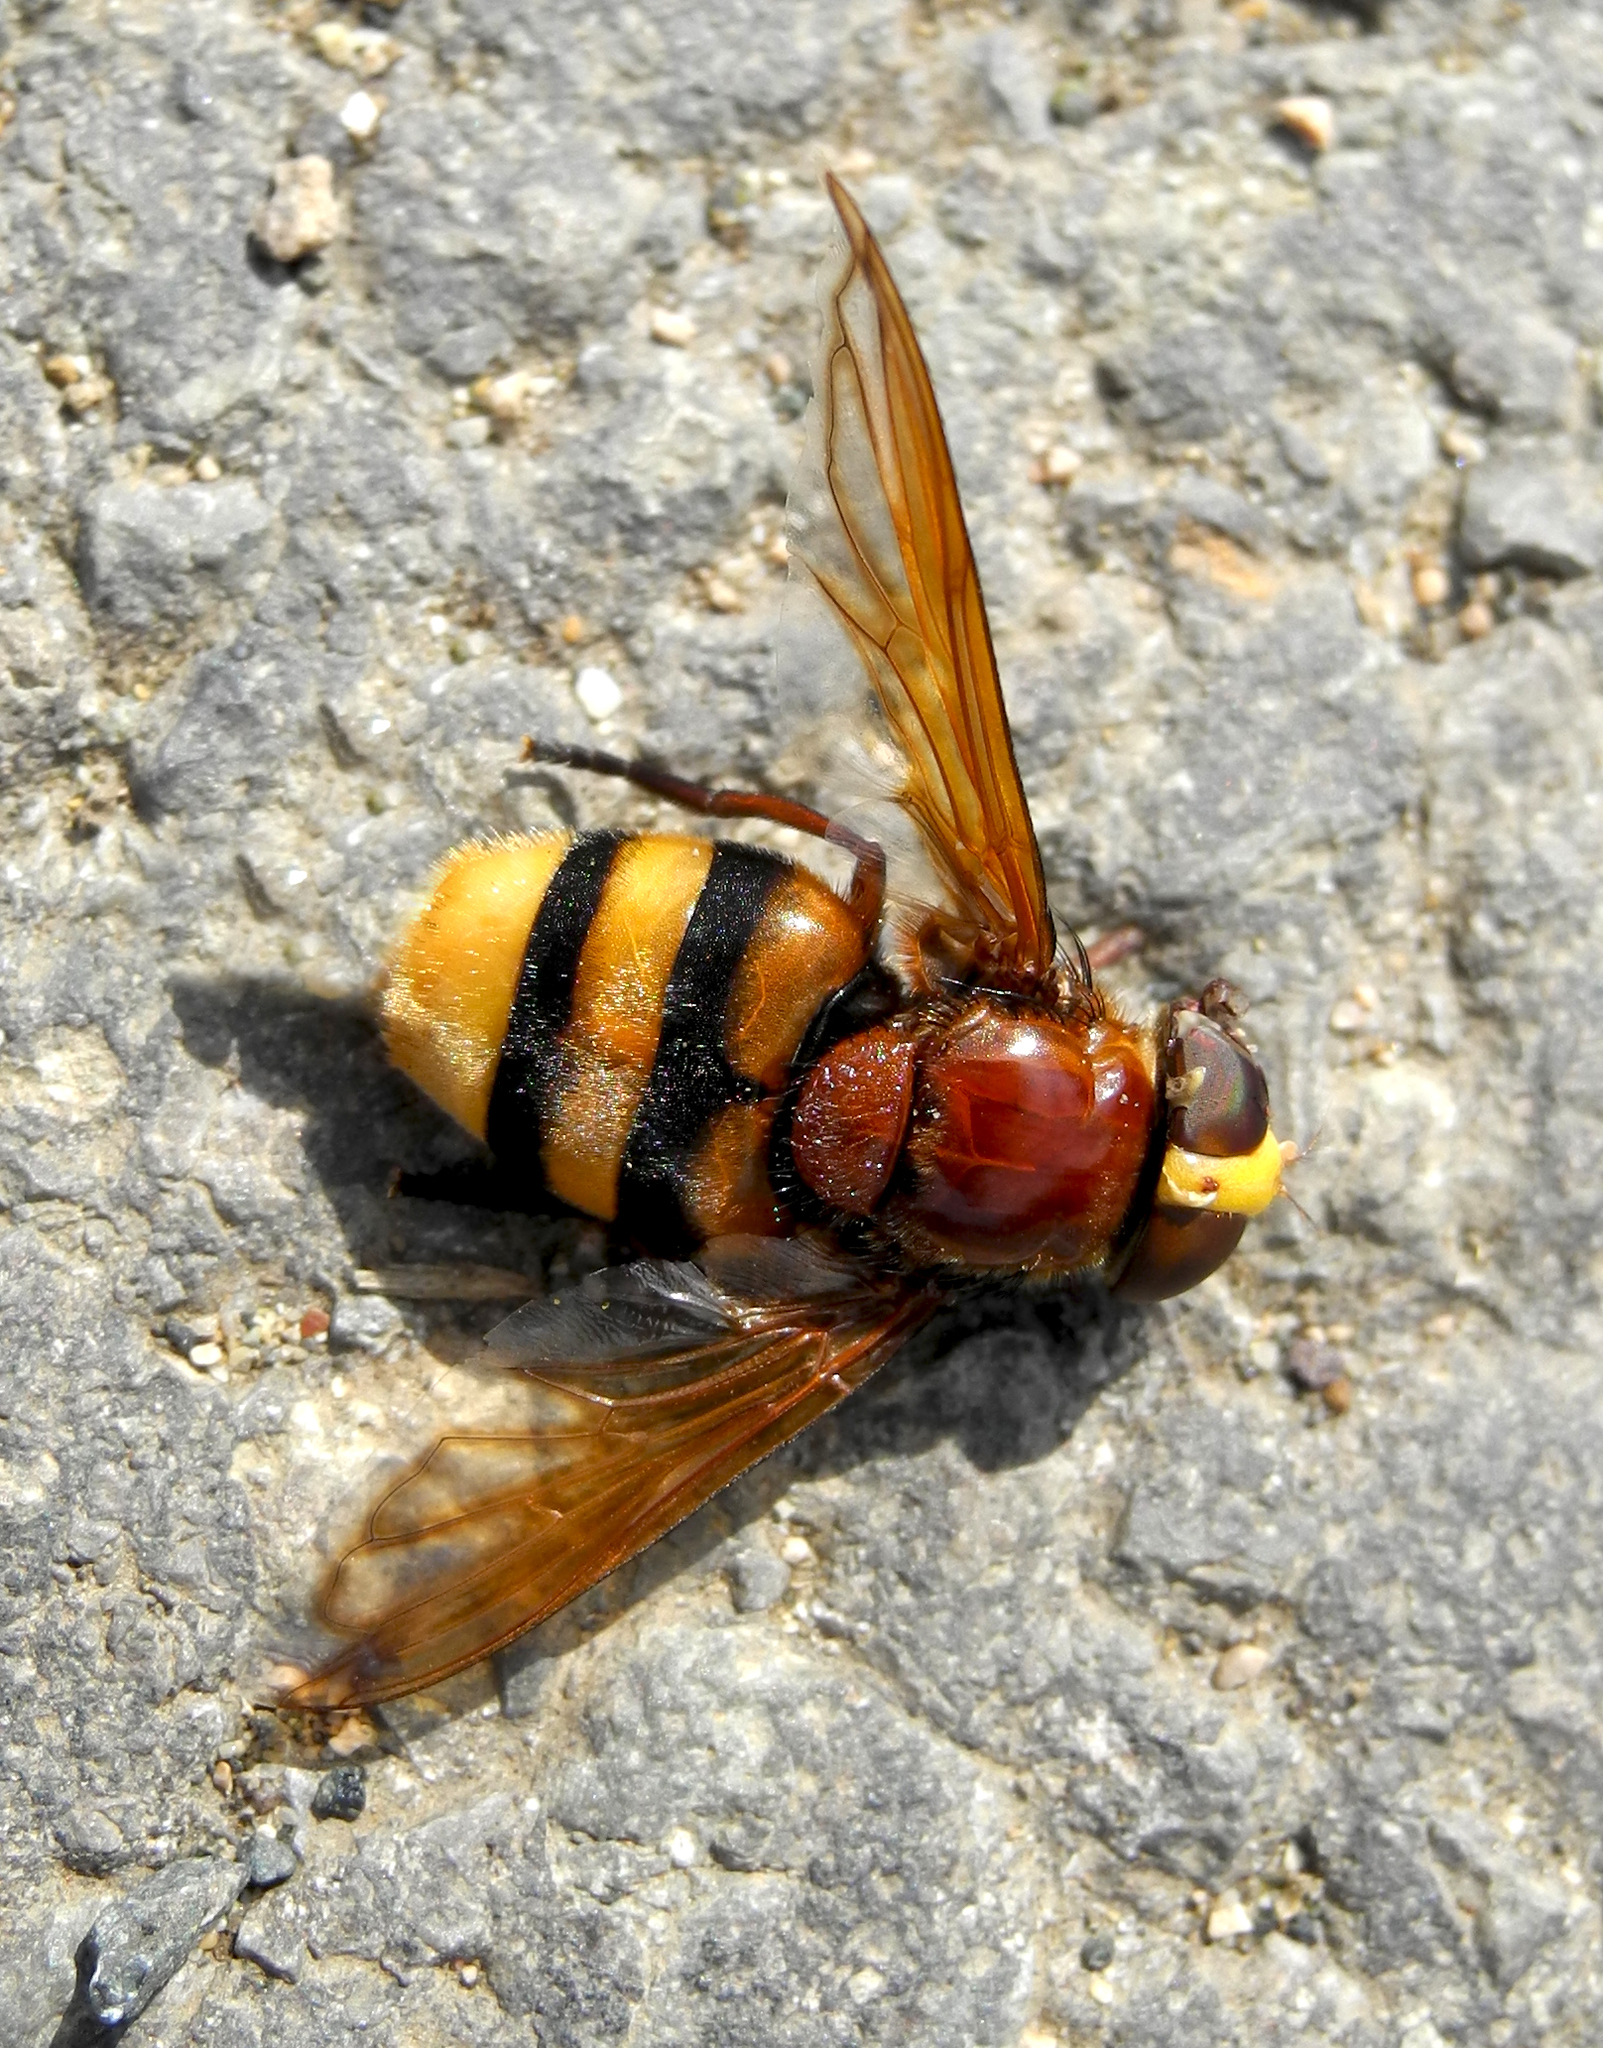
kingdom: Animalia
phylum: Arthropoda
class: Insecta
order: Diptera
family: Syrphidae
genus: Volucella
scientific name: Volucella zonaria
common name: Hornet hoverfly
